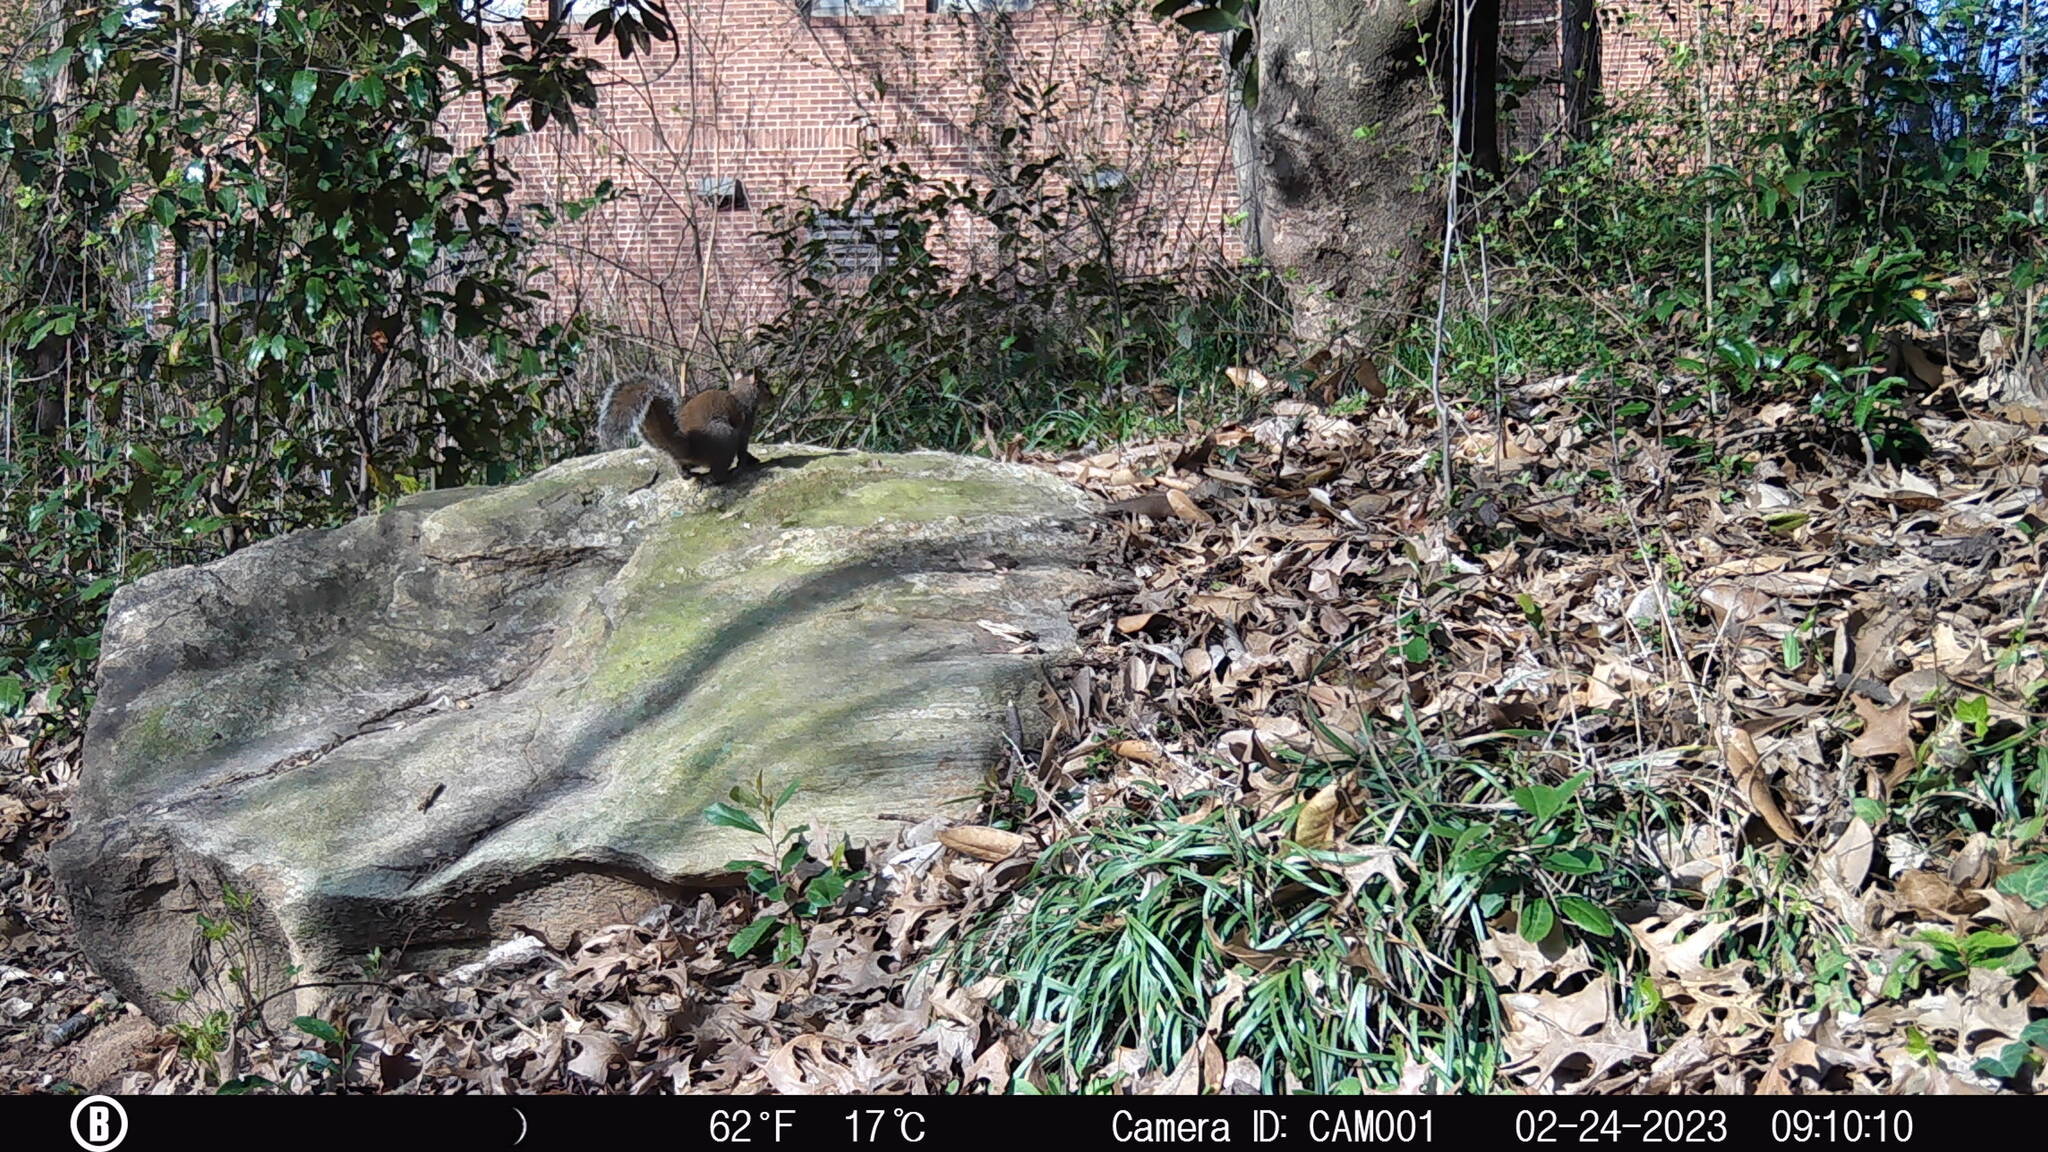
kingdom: Animalia
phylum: Chordata
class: Mammalia
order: Rodentia
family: Sciuridae
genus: Sciurus
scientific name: Sciurus carolinensis
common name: Eastern gray squirrel
